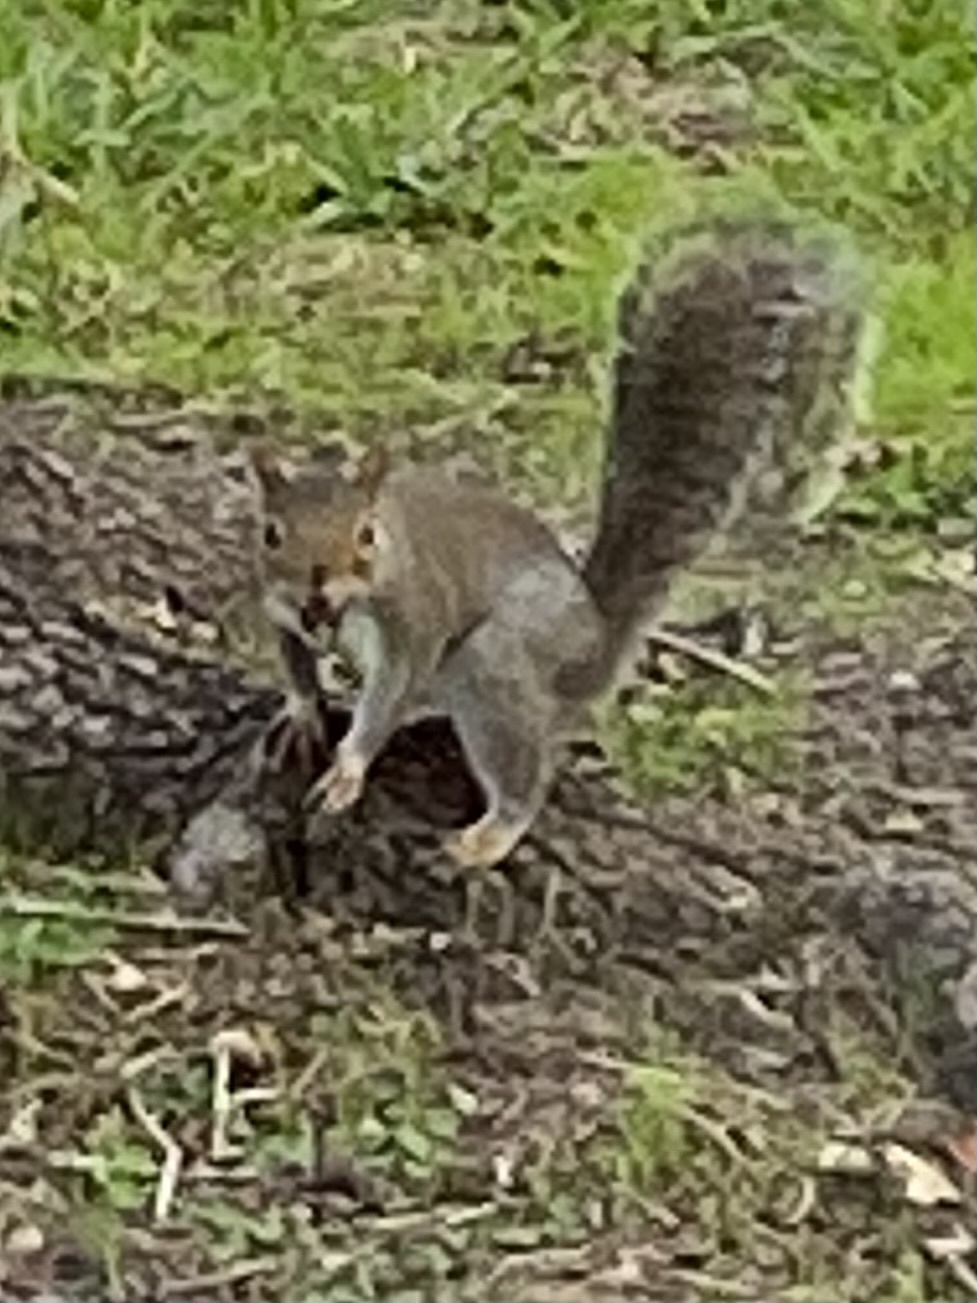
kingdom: Animalia
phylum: Chordata
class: Mammalia
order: Rodentia
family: Sciuridae
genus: Sciurus
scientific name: Sciurus carolinensis
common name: Eastern gray squirrel
